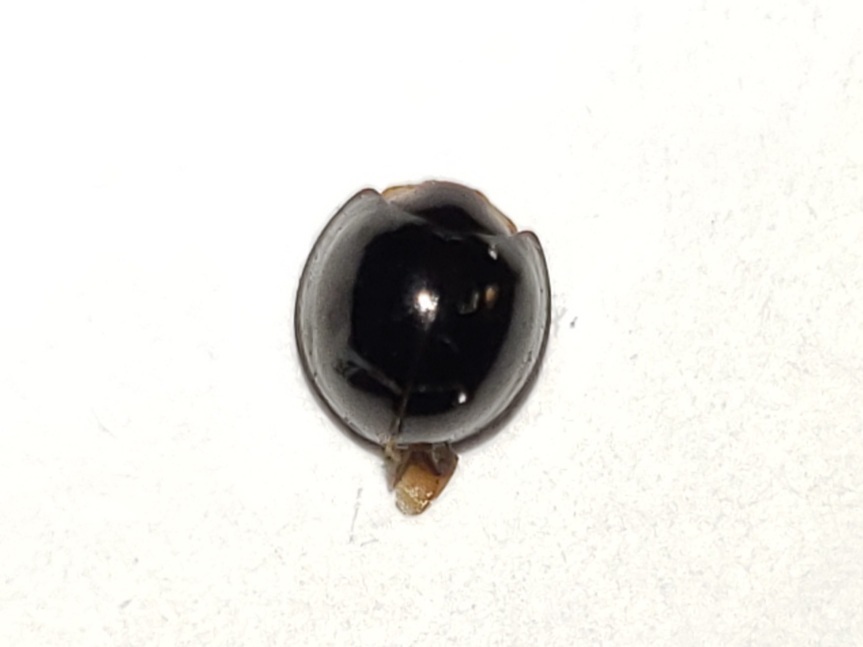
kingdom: Animalia
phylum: Arthropoda
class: Insecta
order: Coleoptera
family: Coccinellidae
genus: Chilocorus
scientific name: Chilocorus nigritus
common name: Ladybird beetle
